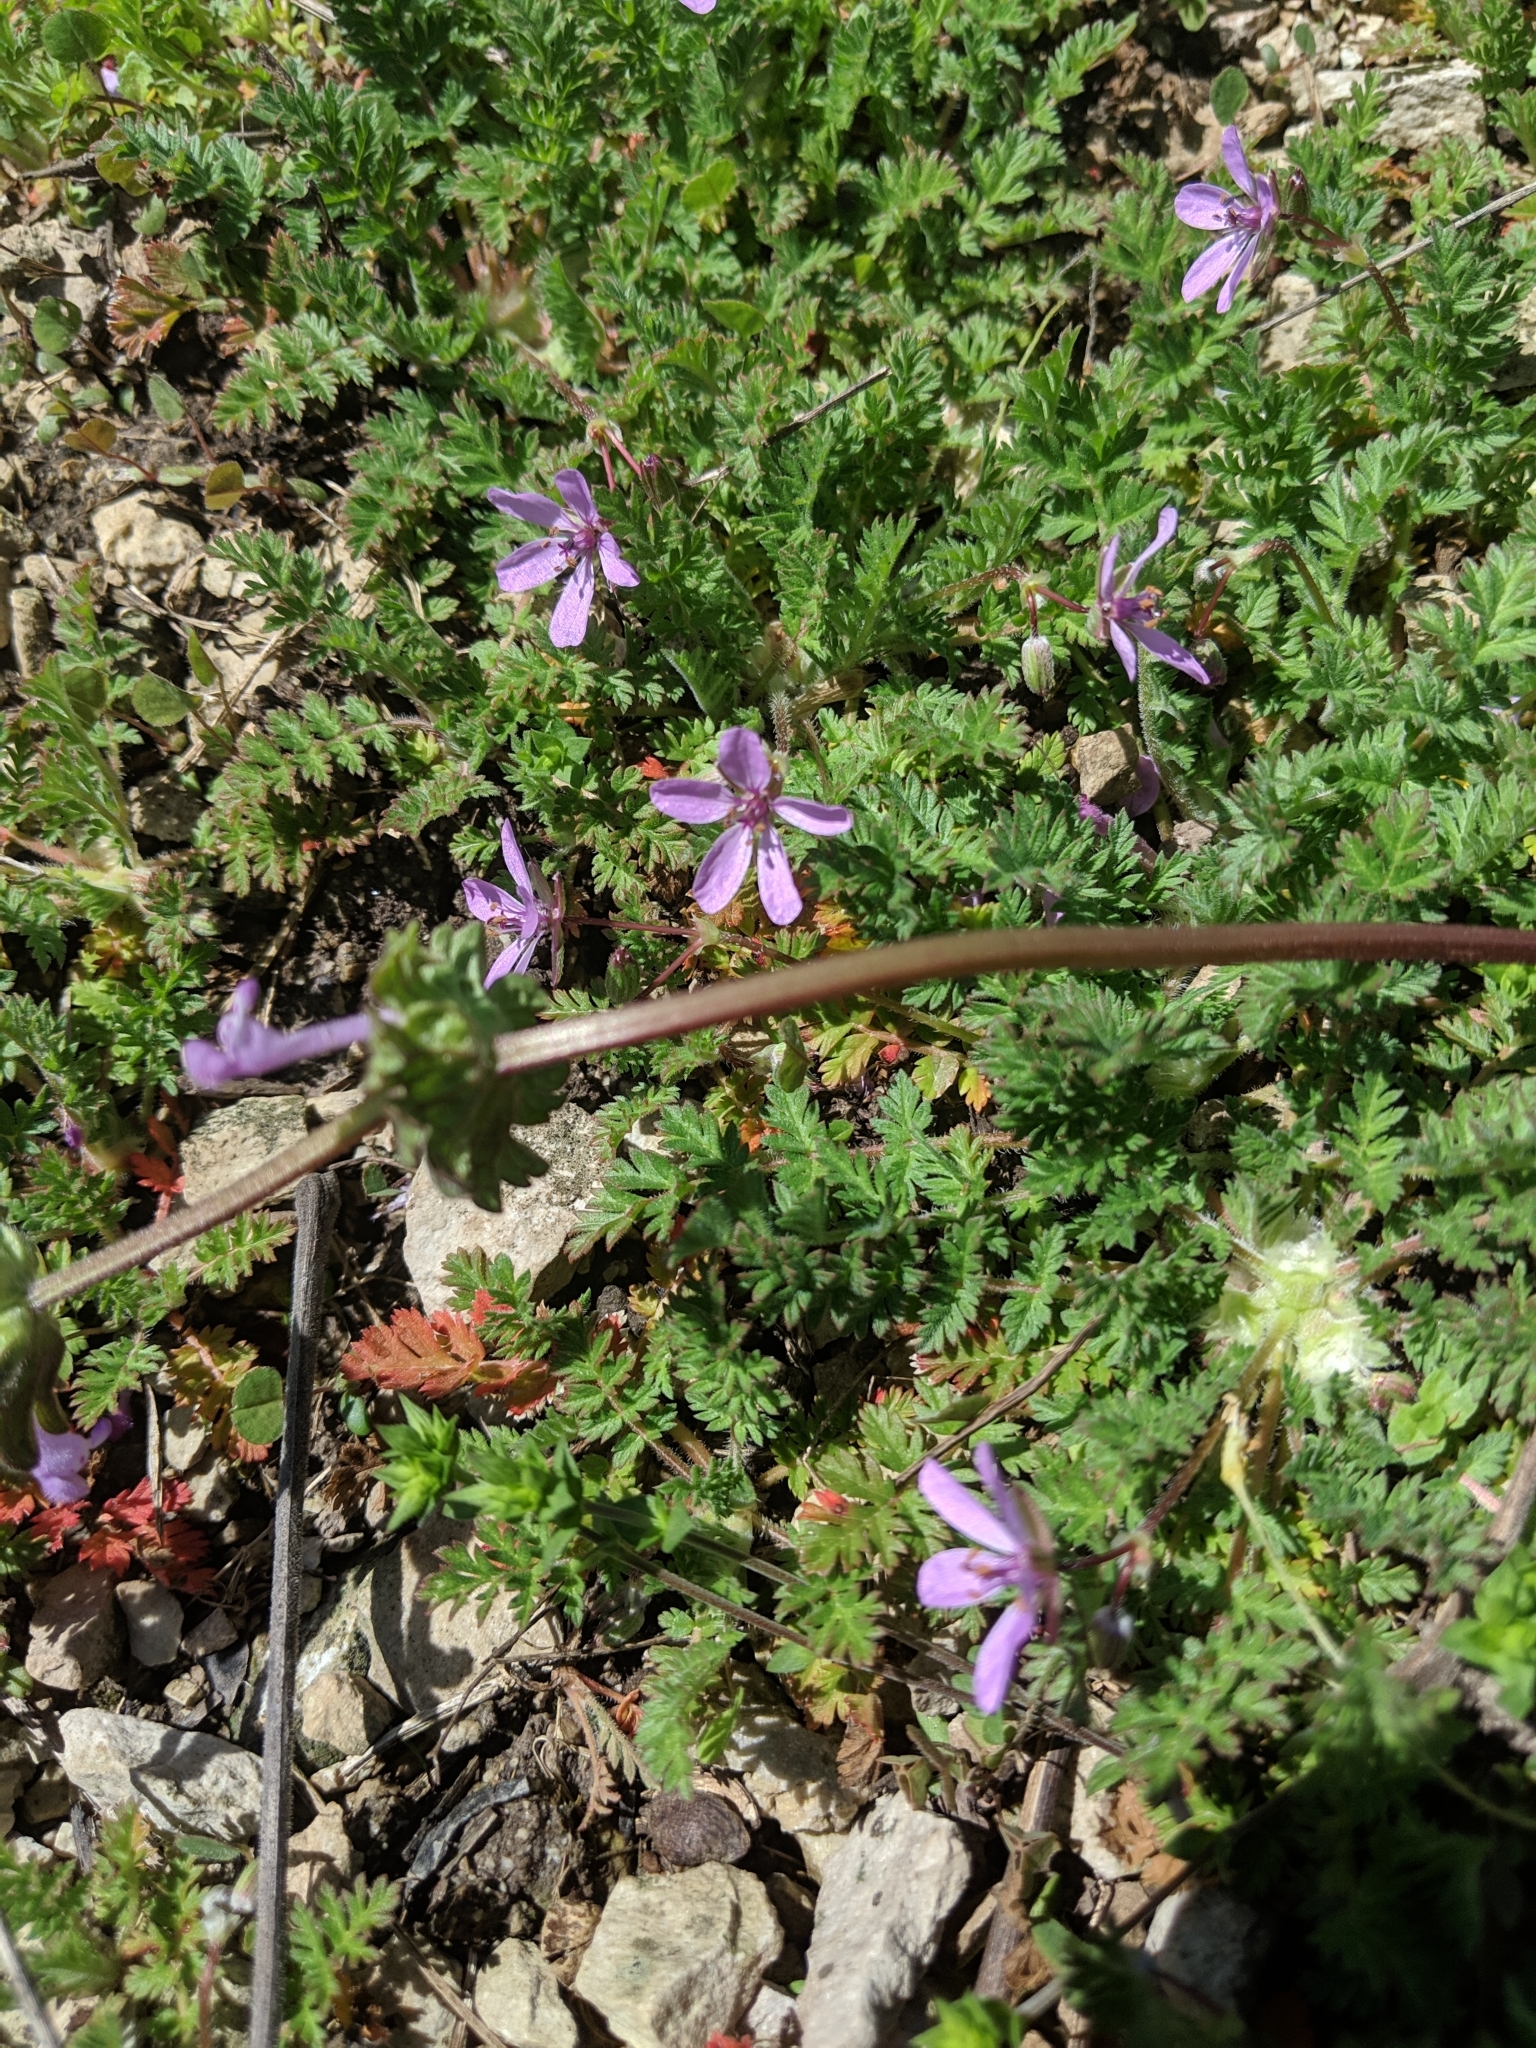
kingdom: Plantae
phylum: Tracheophyta
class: Magnoliopsida
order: Geraniales
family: Geraniaceae
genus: Erodium
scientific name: Erodium cicutarium
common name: Common stork's-bill
